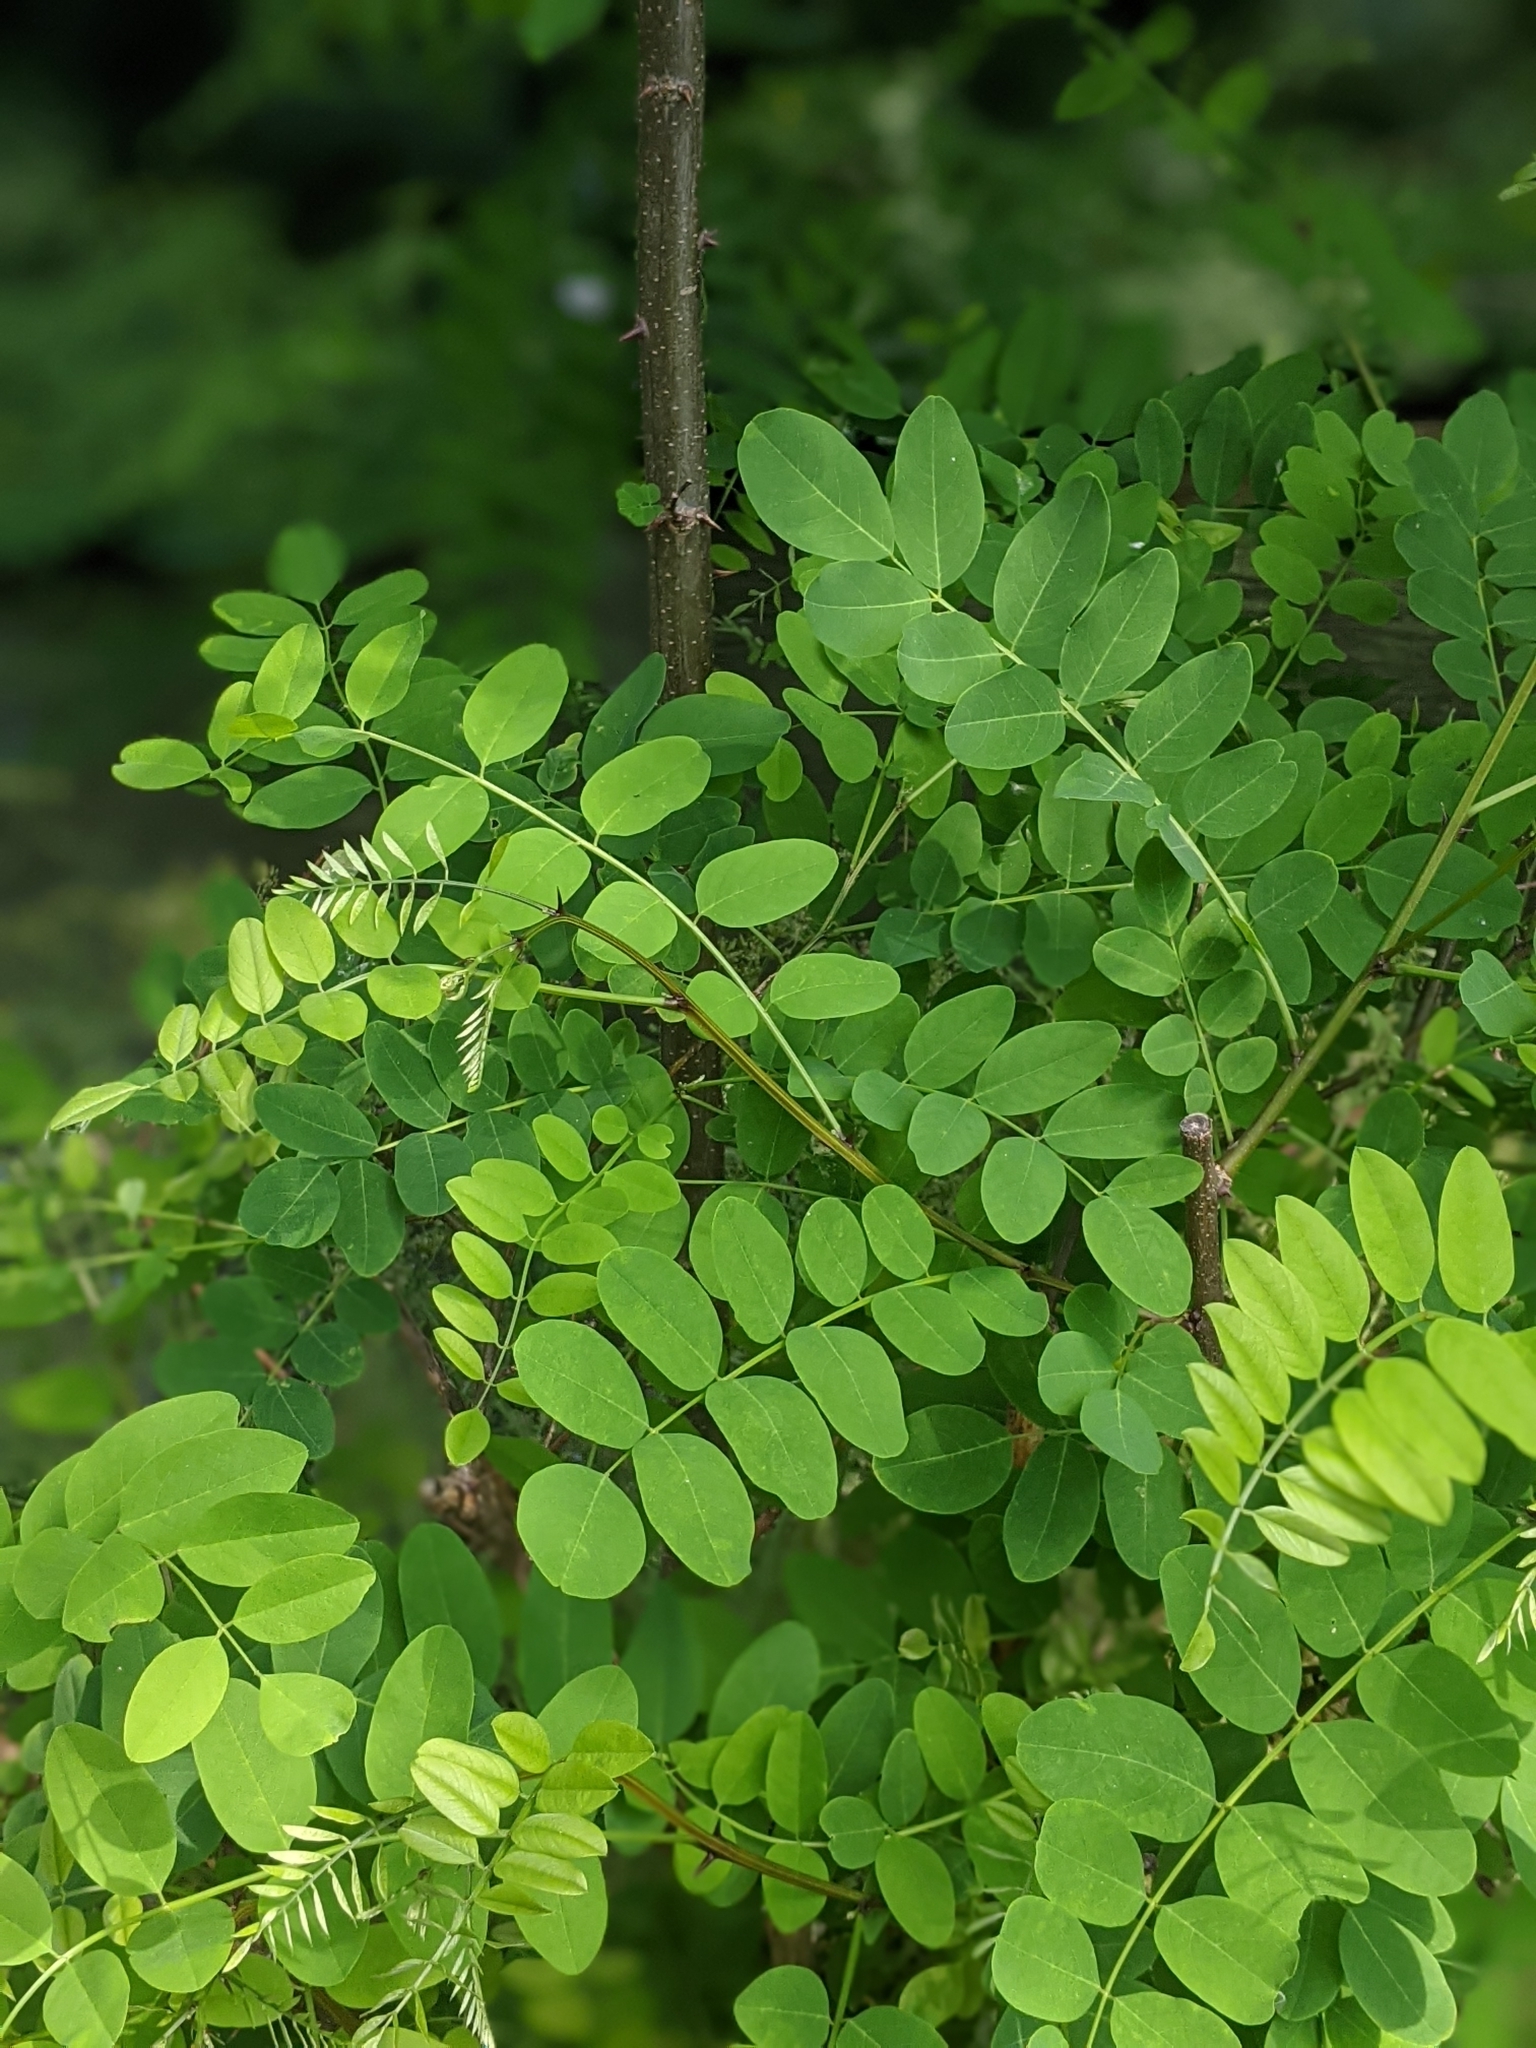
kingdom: Plantae
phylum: Tracheophyta
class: Magnoliopsida
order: Fabales
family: Fabaceae
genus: Robinia
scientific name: Robinia pseudoacacia
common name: Black locust
